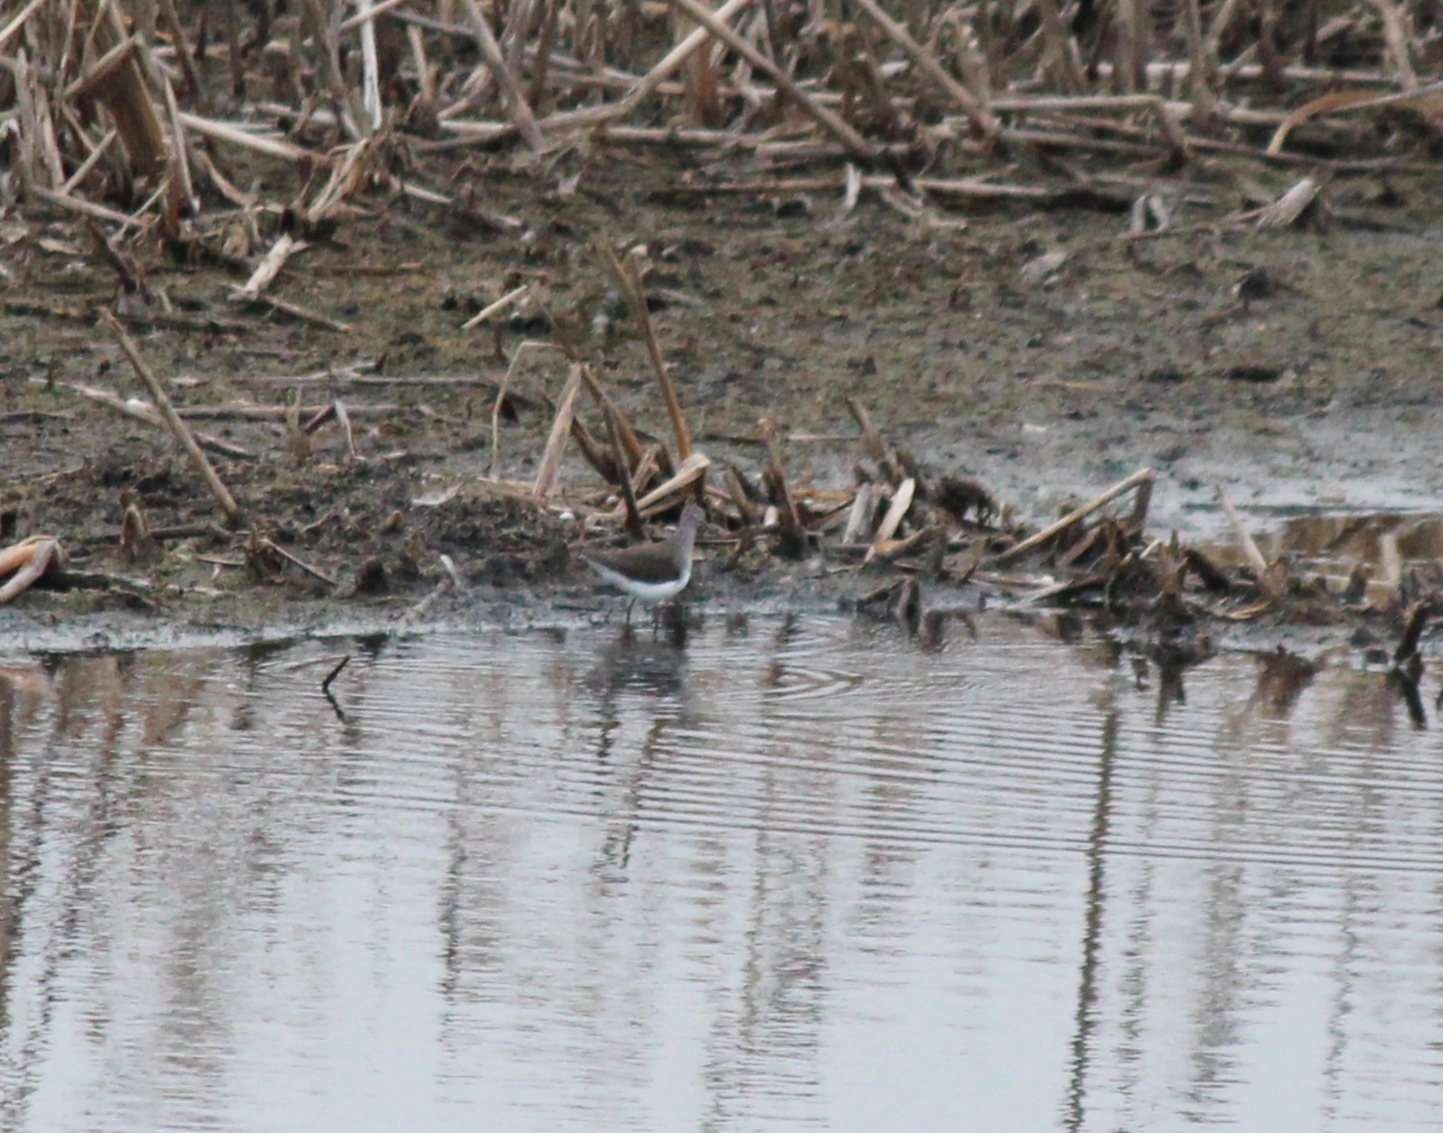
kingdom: Animalia
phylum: Chordata
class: Aves
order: Charadriiformes
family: Scolopacidae
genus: Tringa
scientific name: Tringa ochropus
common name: Green sandpiper
